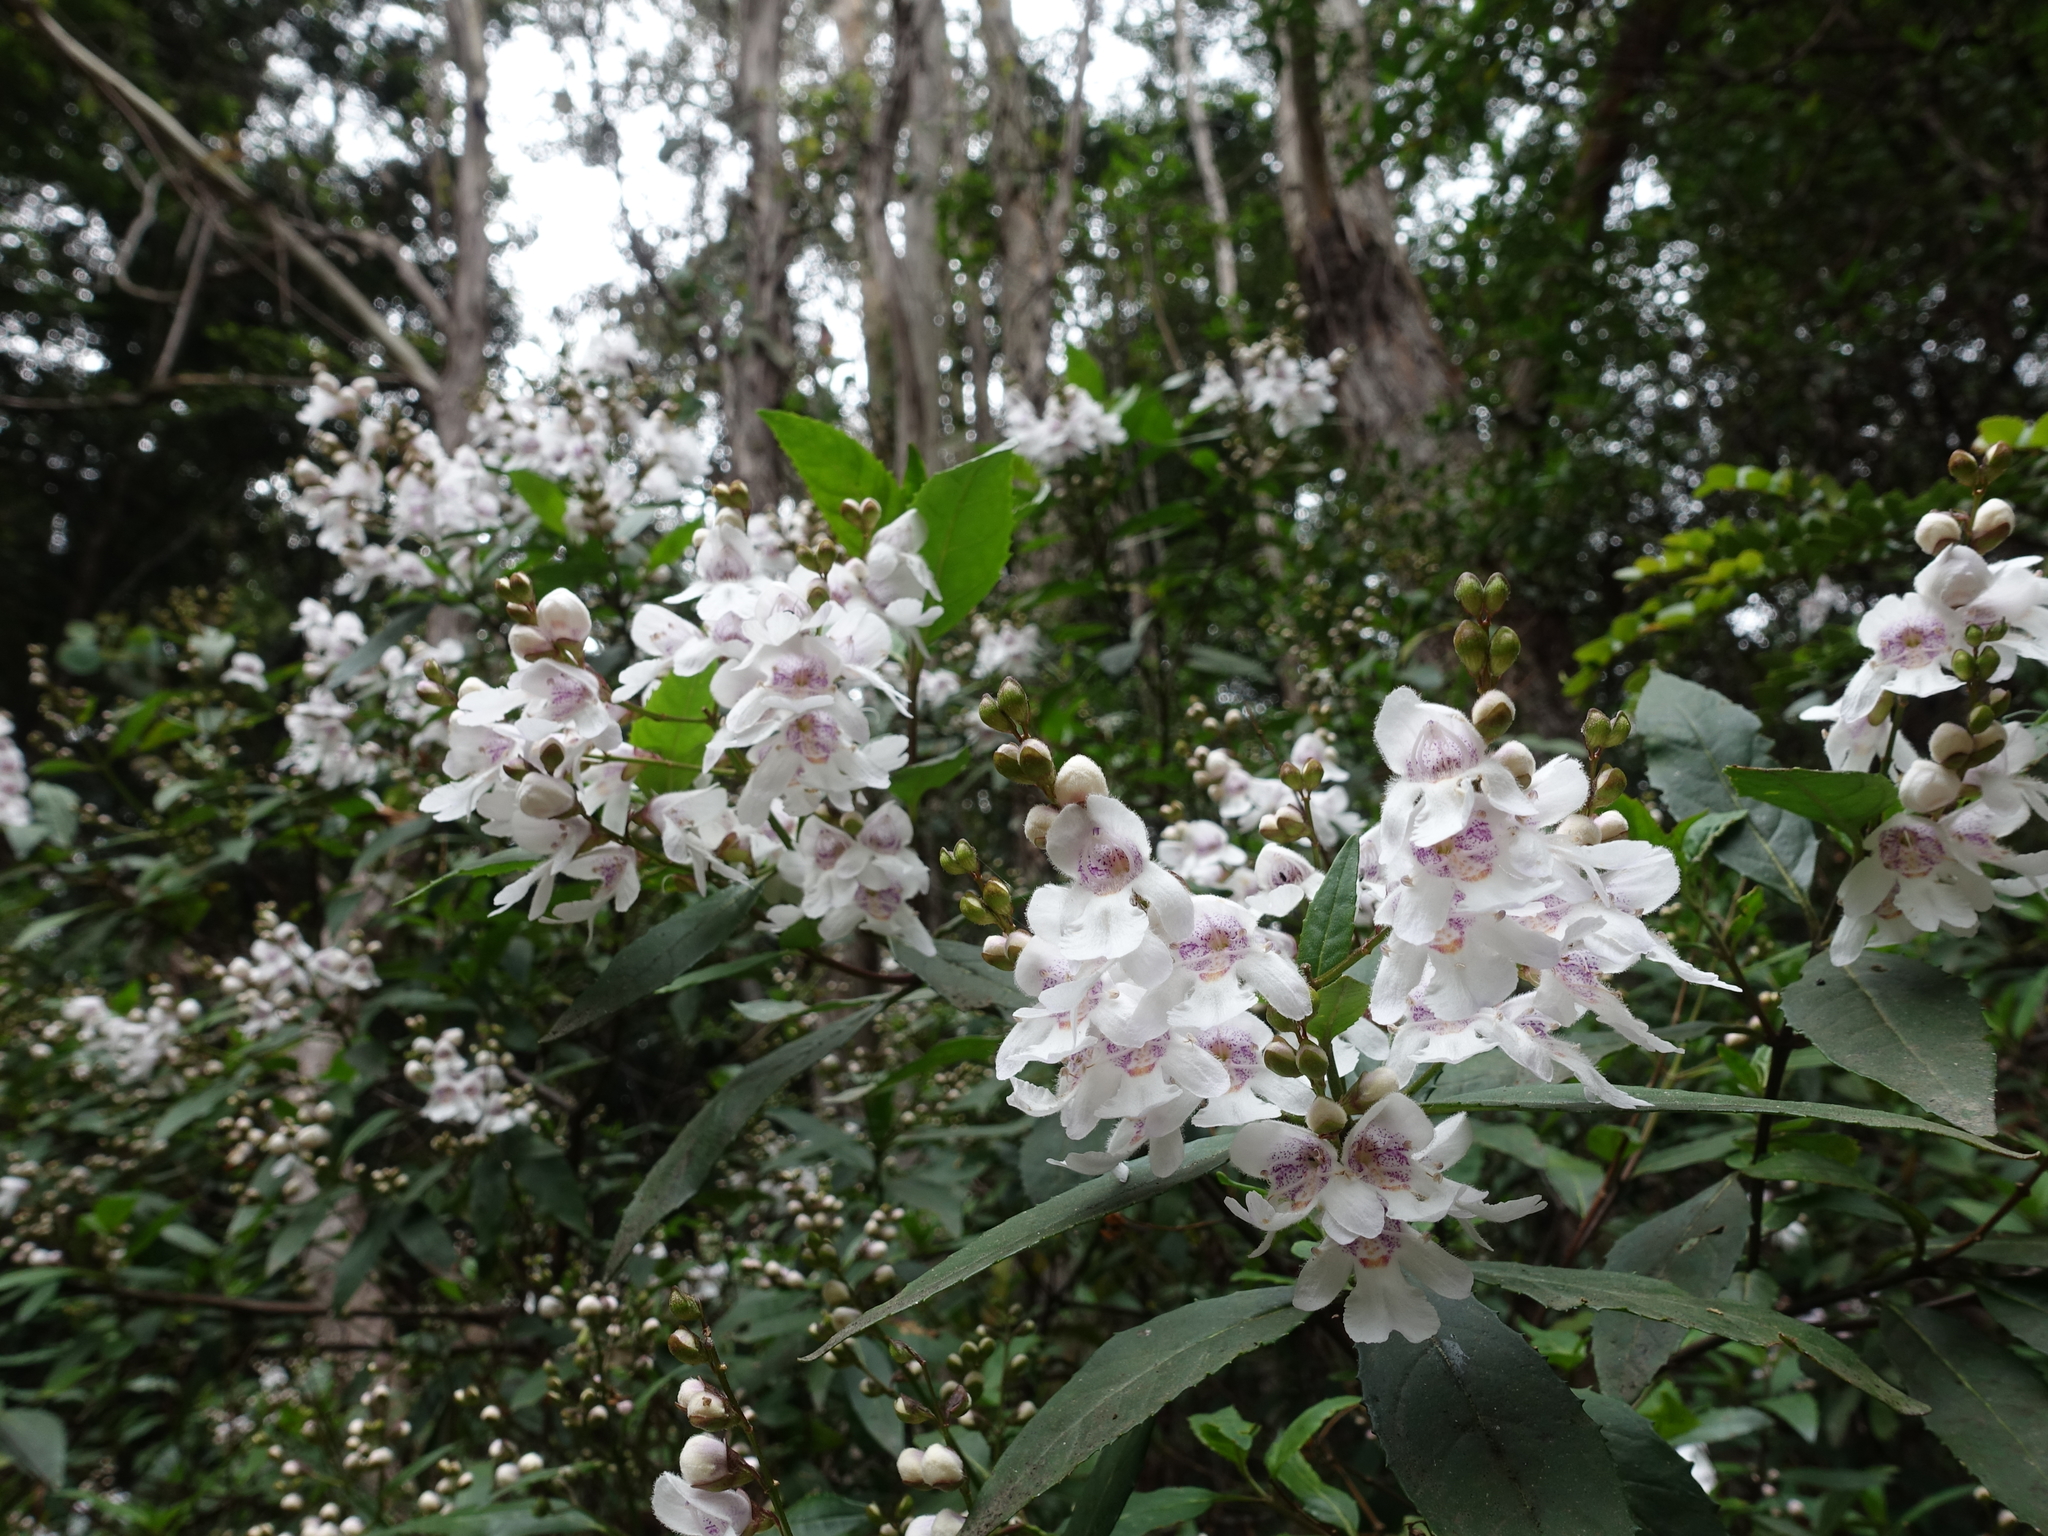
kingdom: Plantae
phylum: Tracheophyta
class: Magnoliopsida
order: Lamiales
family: Lamiaceae
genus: Prostanthera
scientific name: Prostanthera lasianthos
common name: Mountain-lilac
